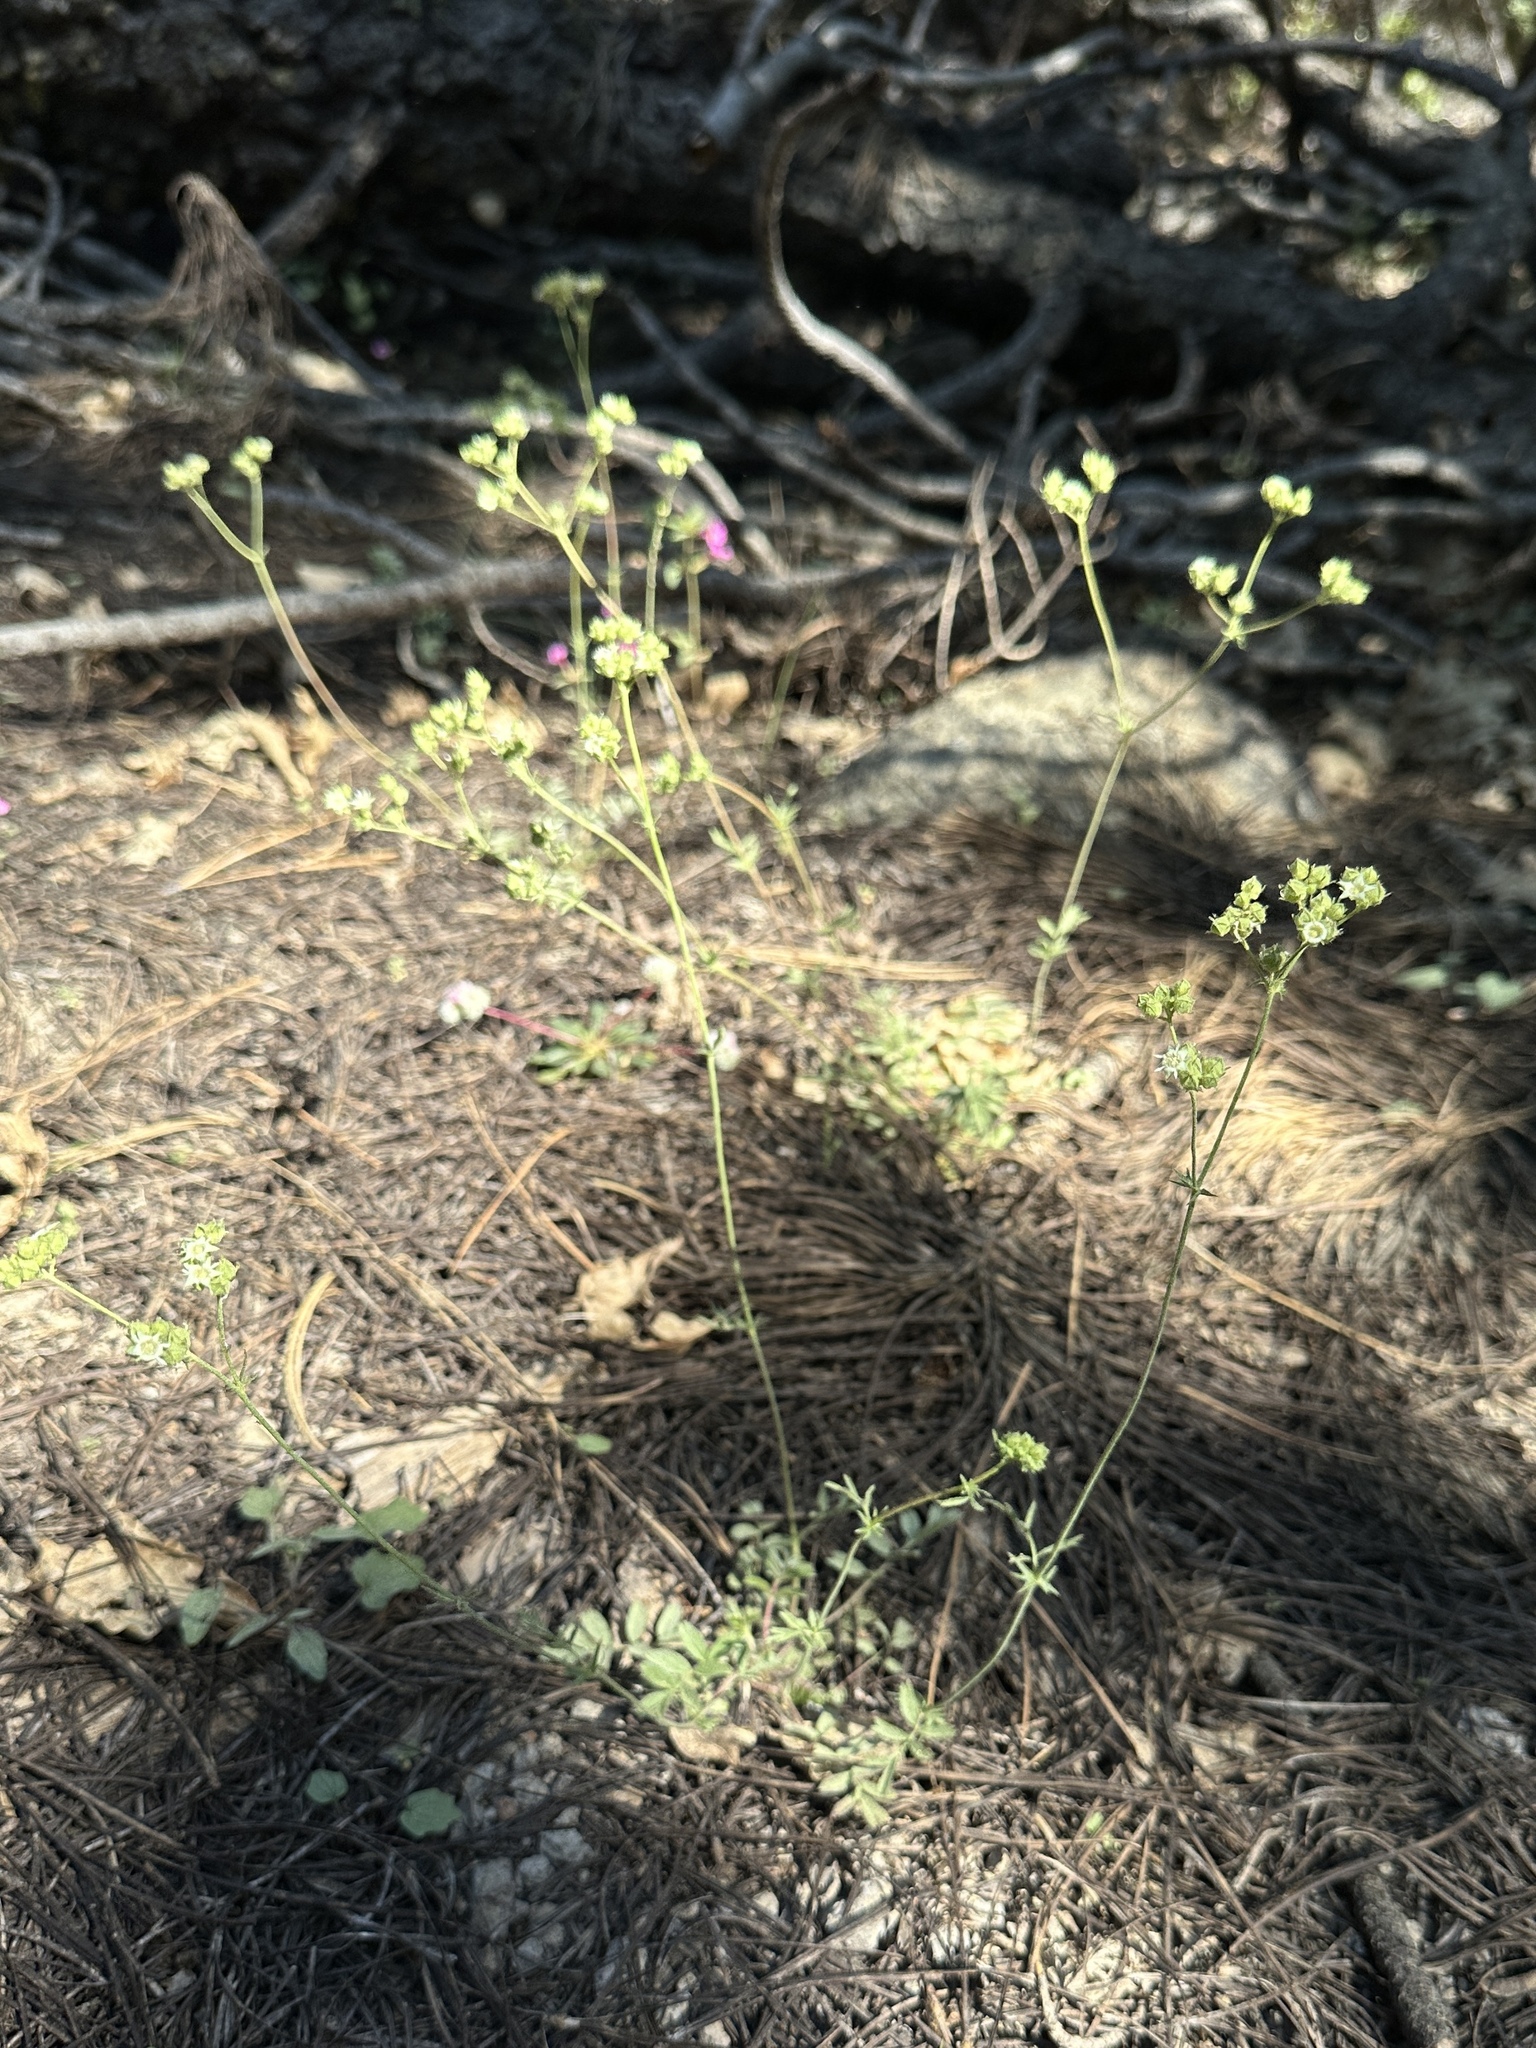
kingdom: Plantae
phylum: Tracheophyta
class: Magnoliopsida
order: Rosales
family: Rosaceae
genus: Potentilla
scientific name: Potentilla tilingii
